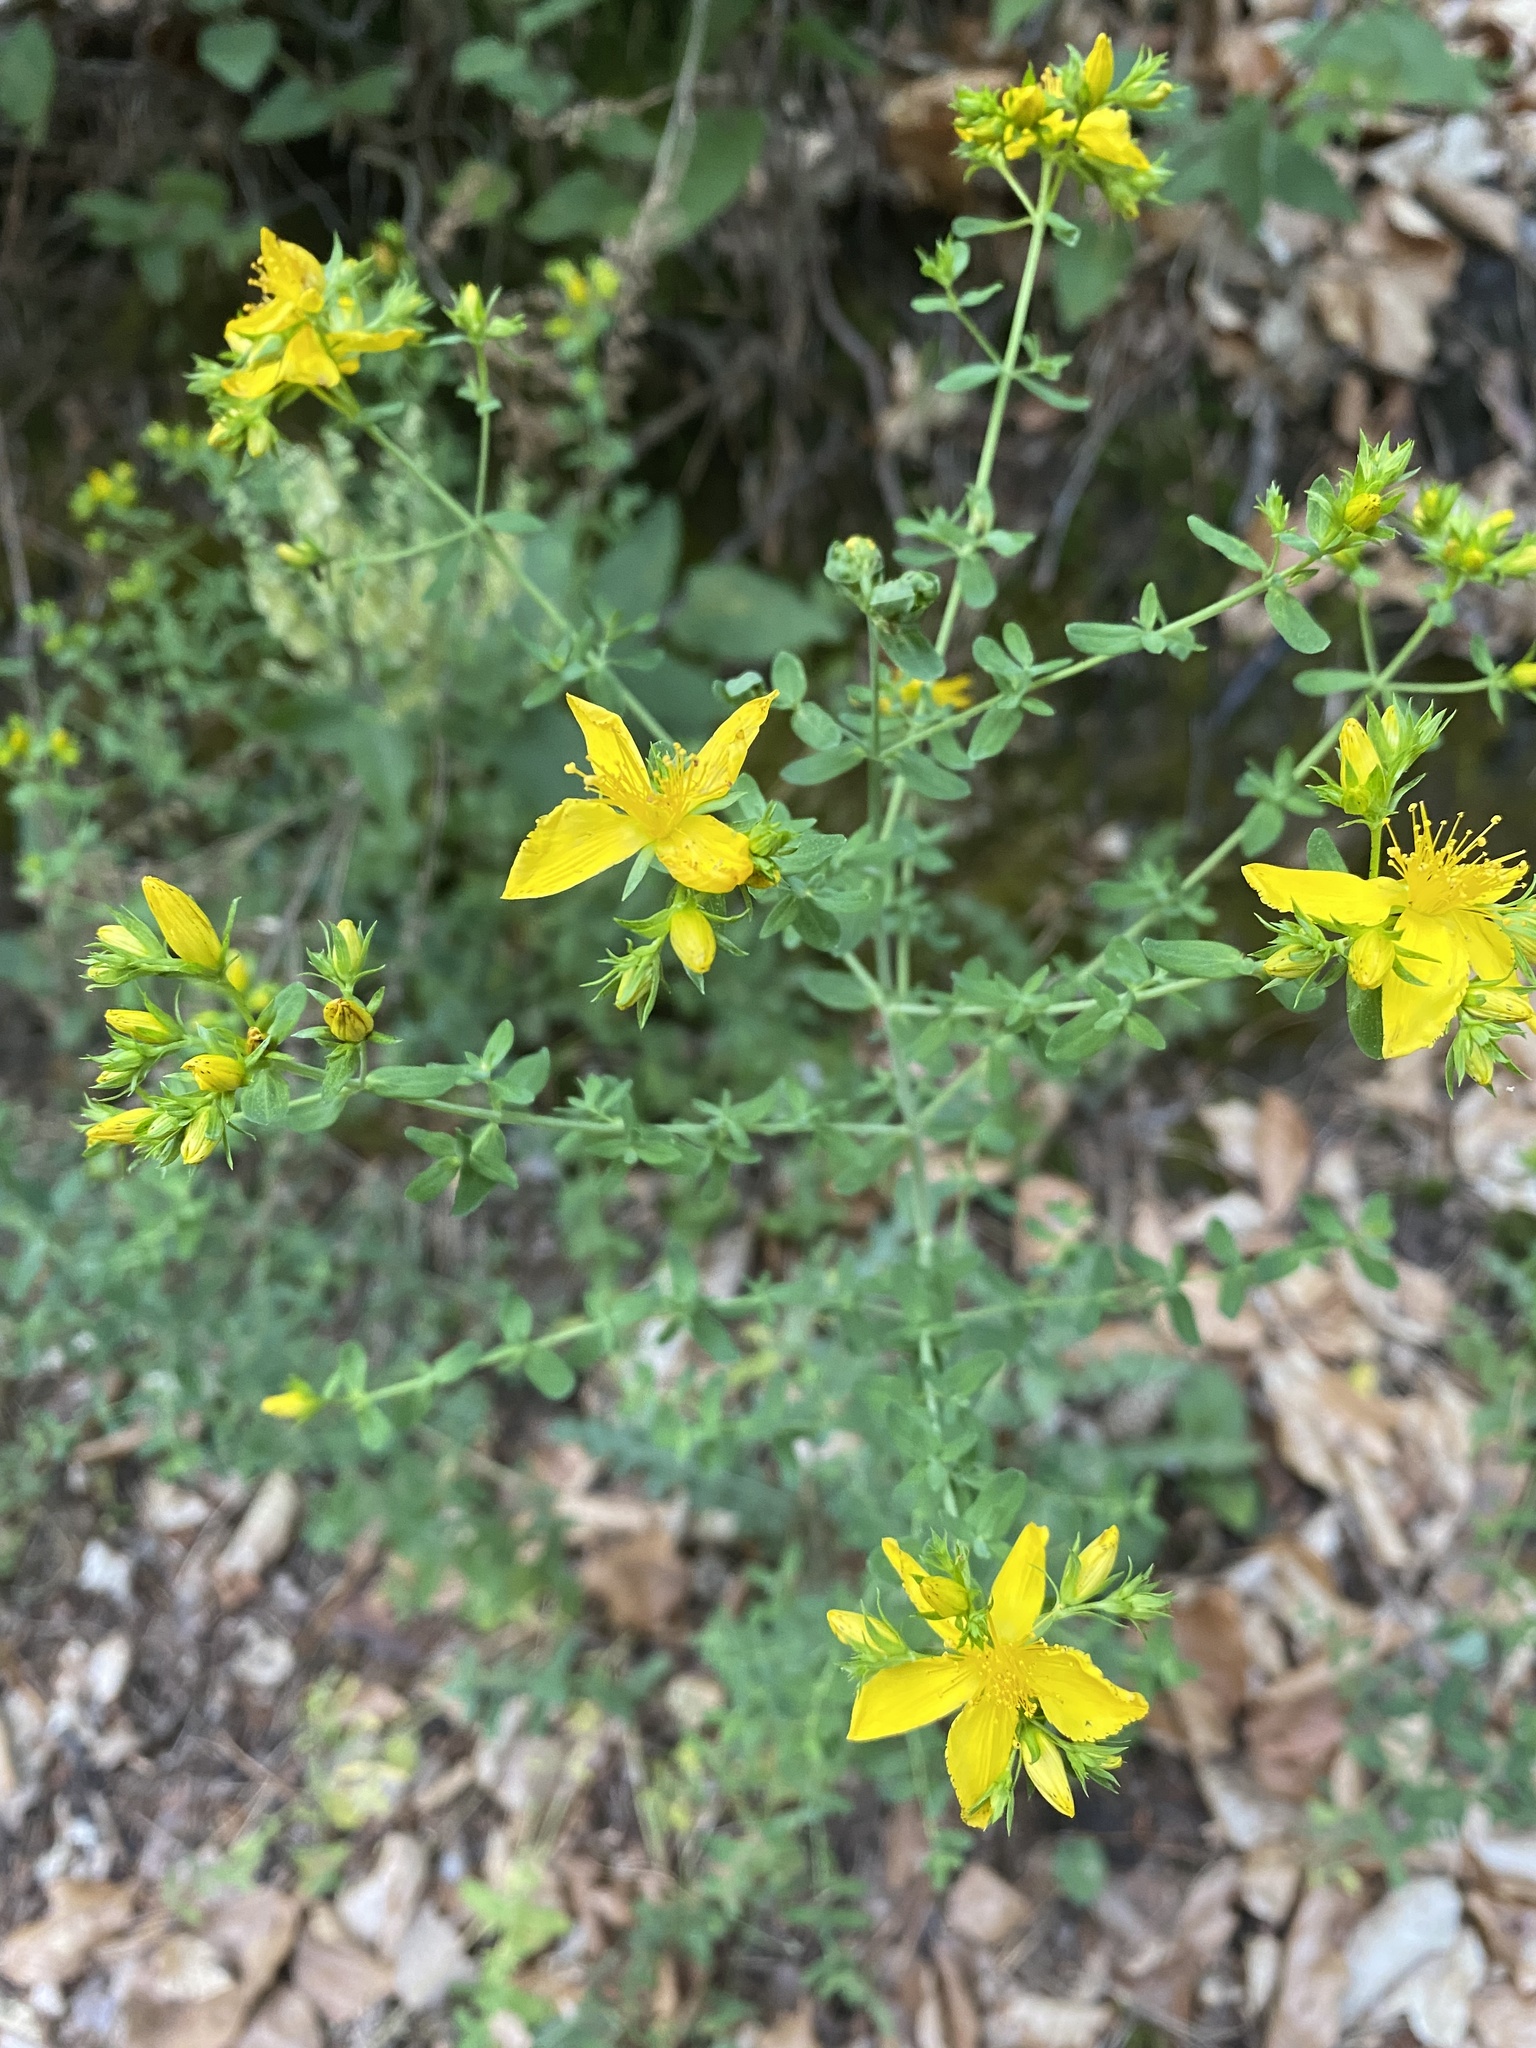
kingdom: Plantae
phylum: Tracheophyta
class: Magnoliopsida
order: Malpighiales
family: Hypericaceae
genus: Hypericum
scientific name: Hypericum perforatum
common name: Common st. johnswort
